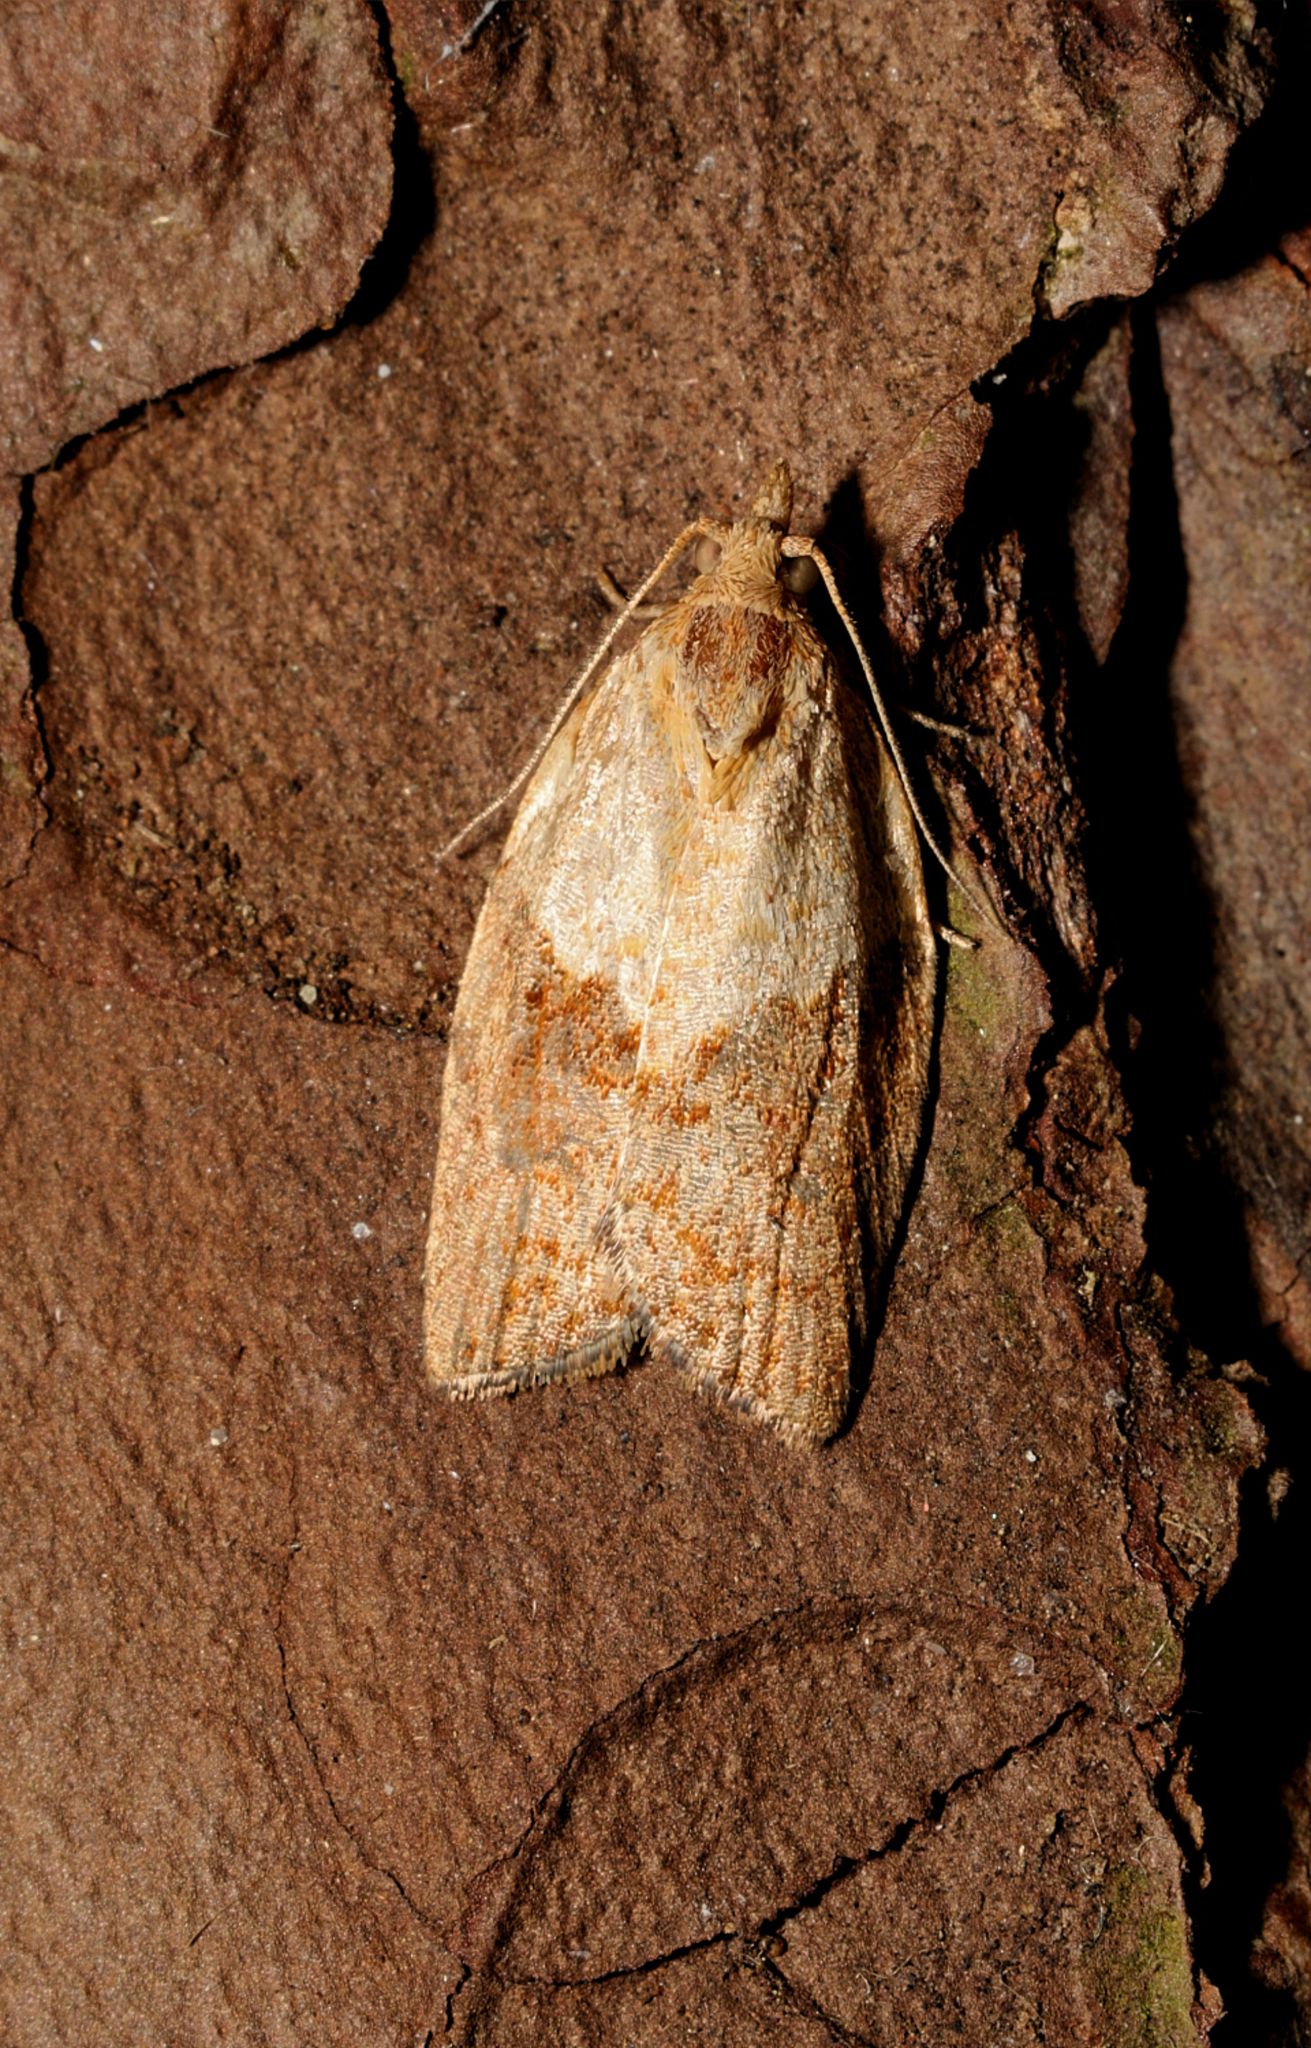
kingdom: Animalia
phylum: Arthropoda
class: Insecta
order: Lepidoptera
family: Tortricidae
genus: Epiphyas
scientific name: Epiphyas postvittana
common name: Light brown apple moth
